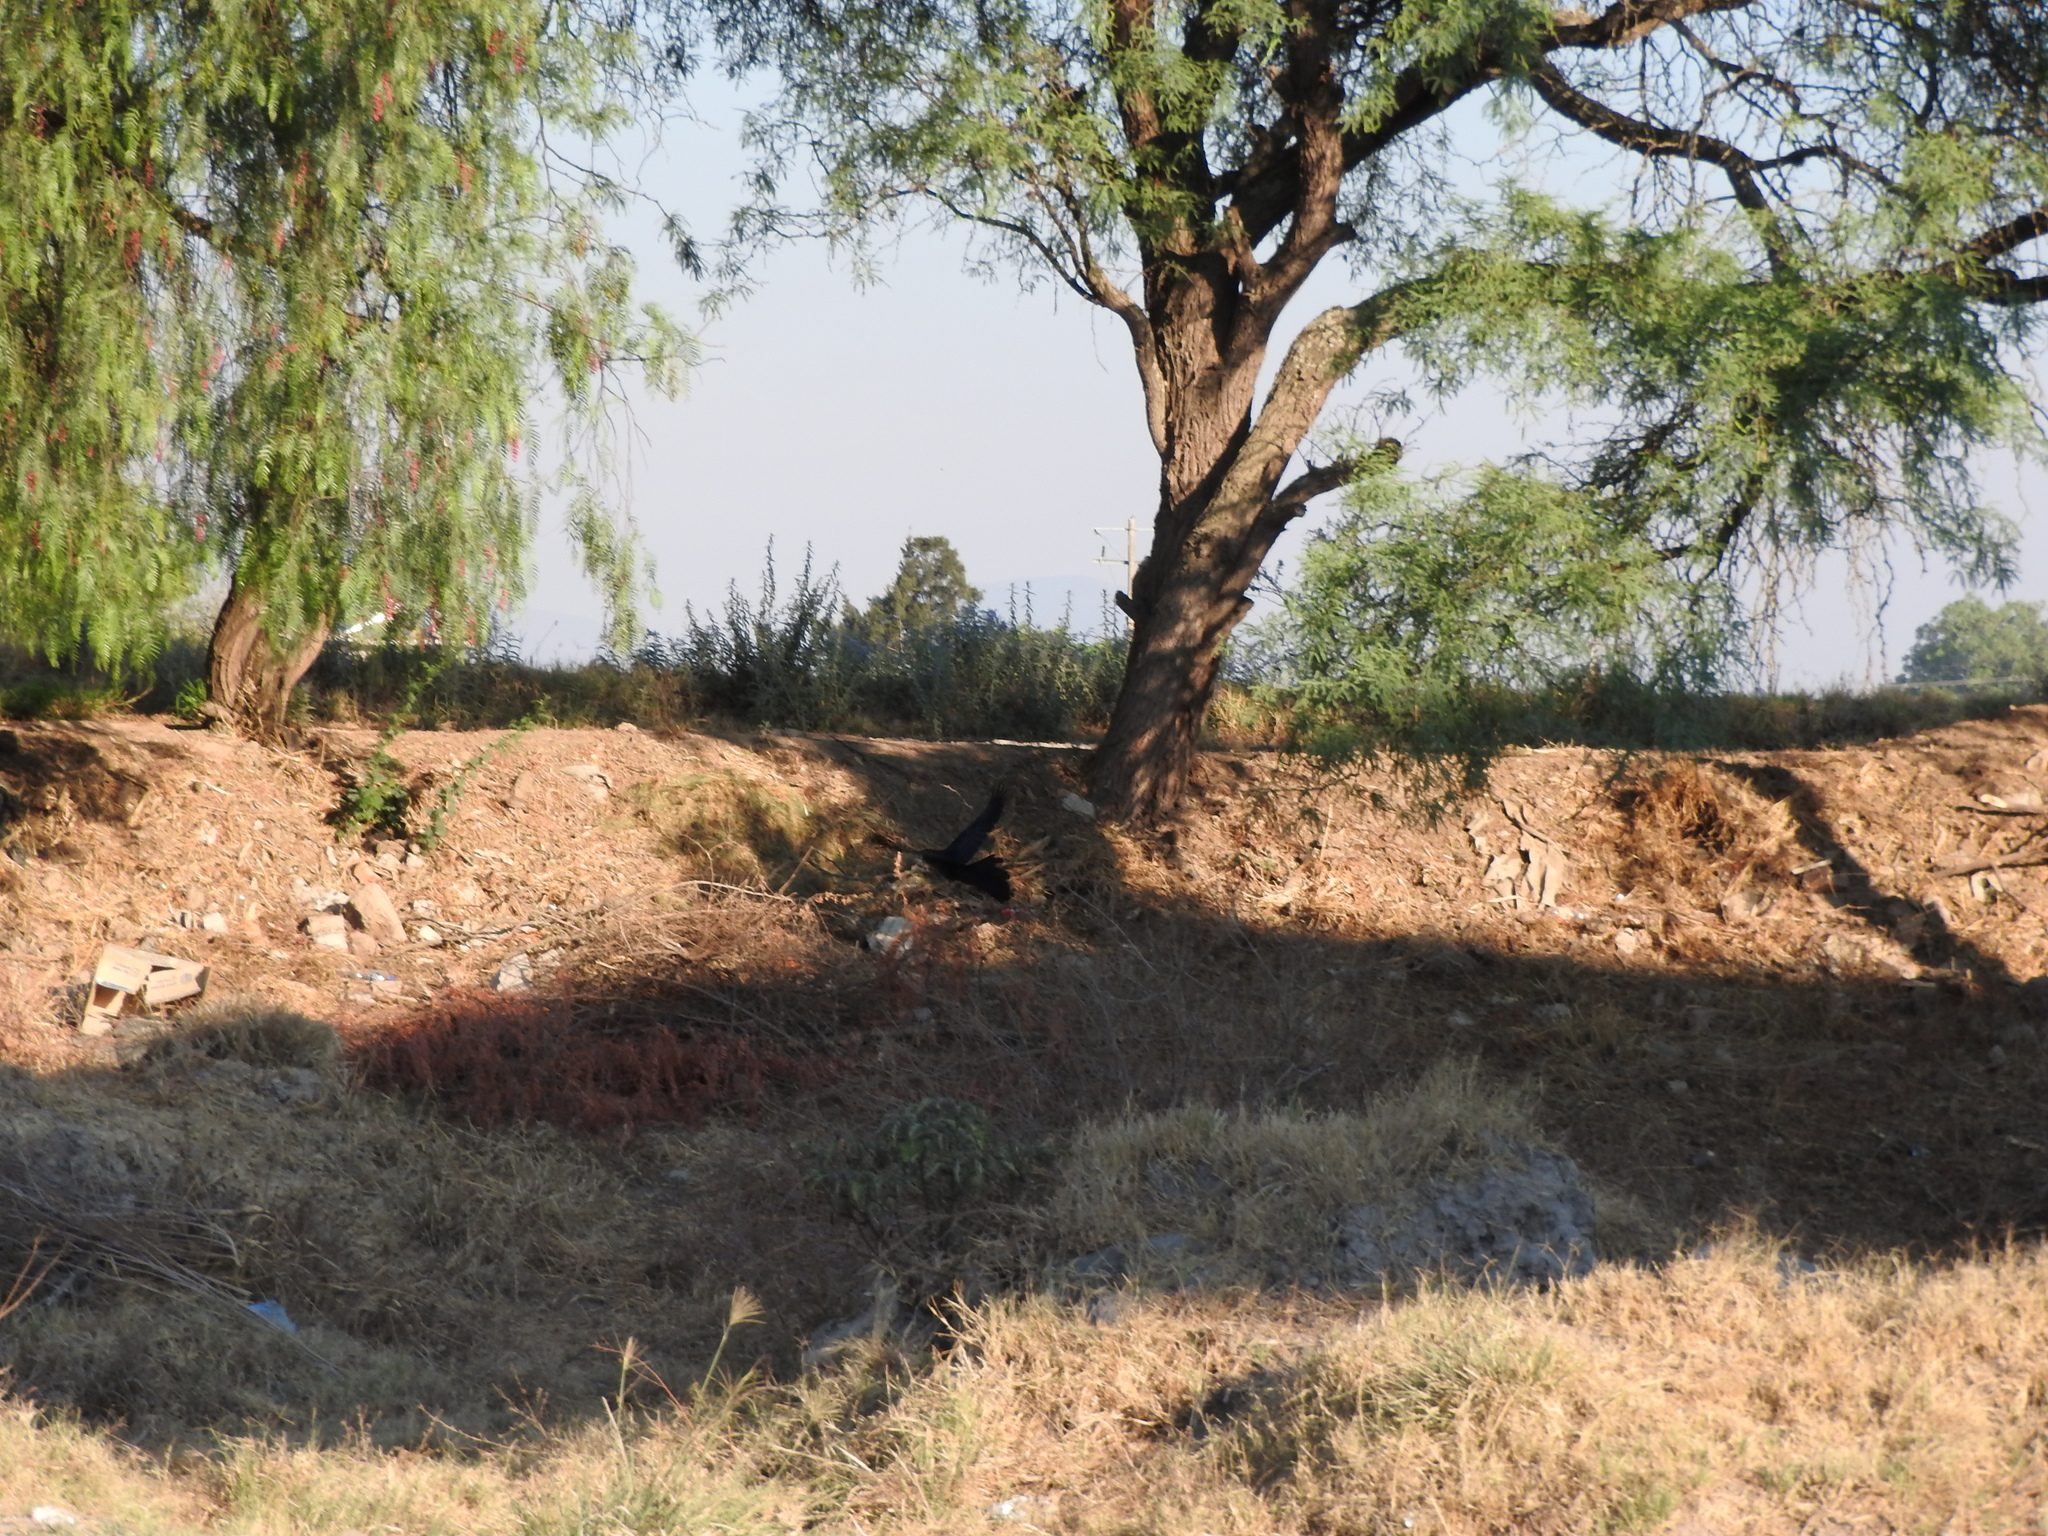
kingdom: Animalia
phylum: Chordata
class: Aves
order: Passeriformes
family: Icteridae
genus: Quiscalus
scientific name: Quiscalus mexicanus
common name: Great-tailed grackle
